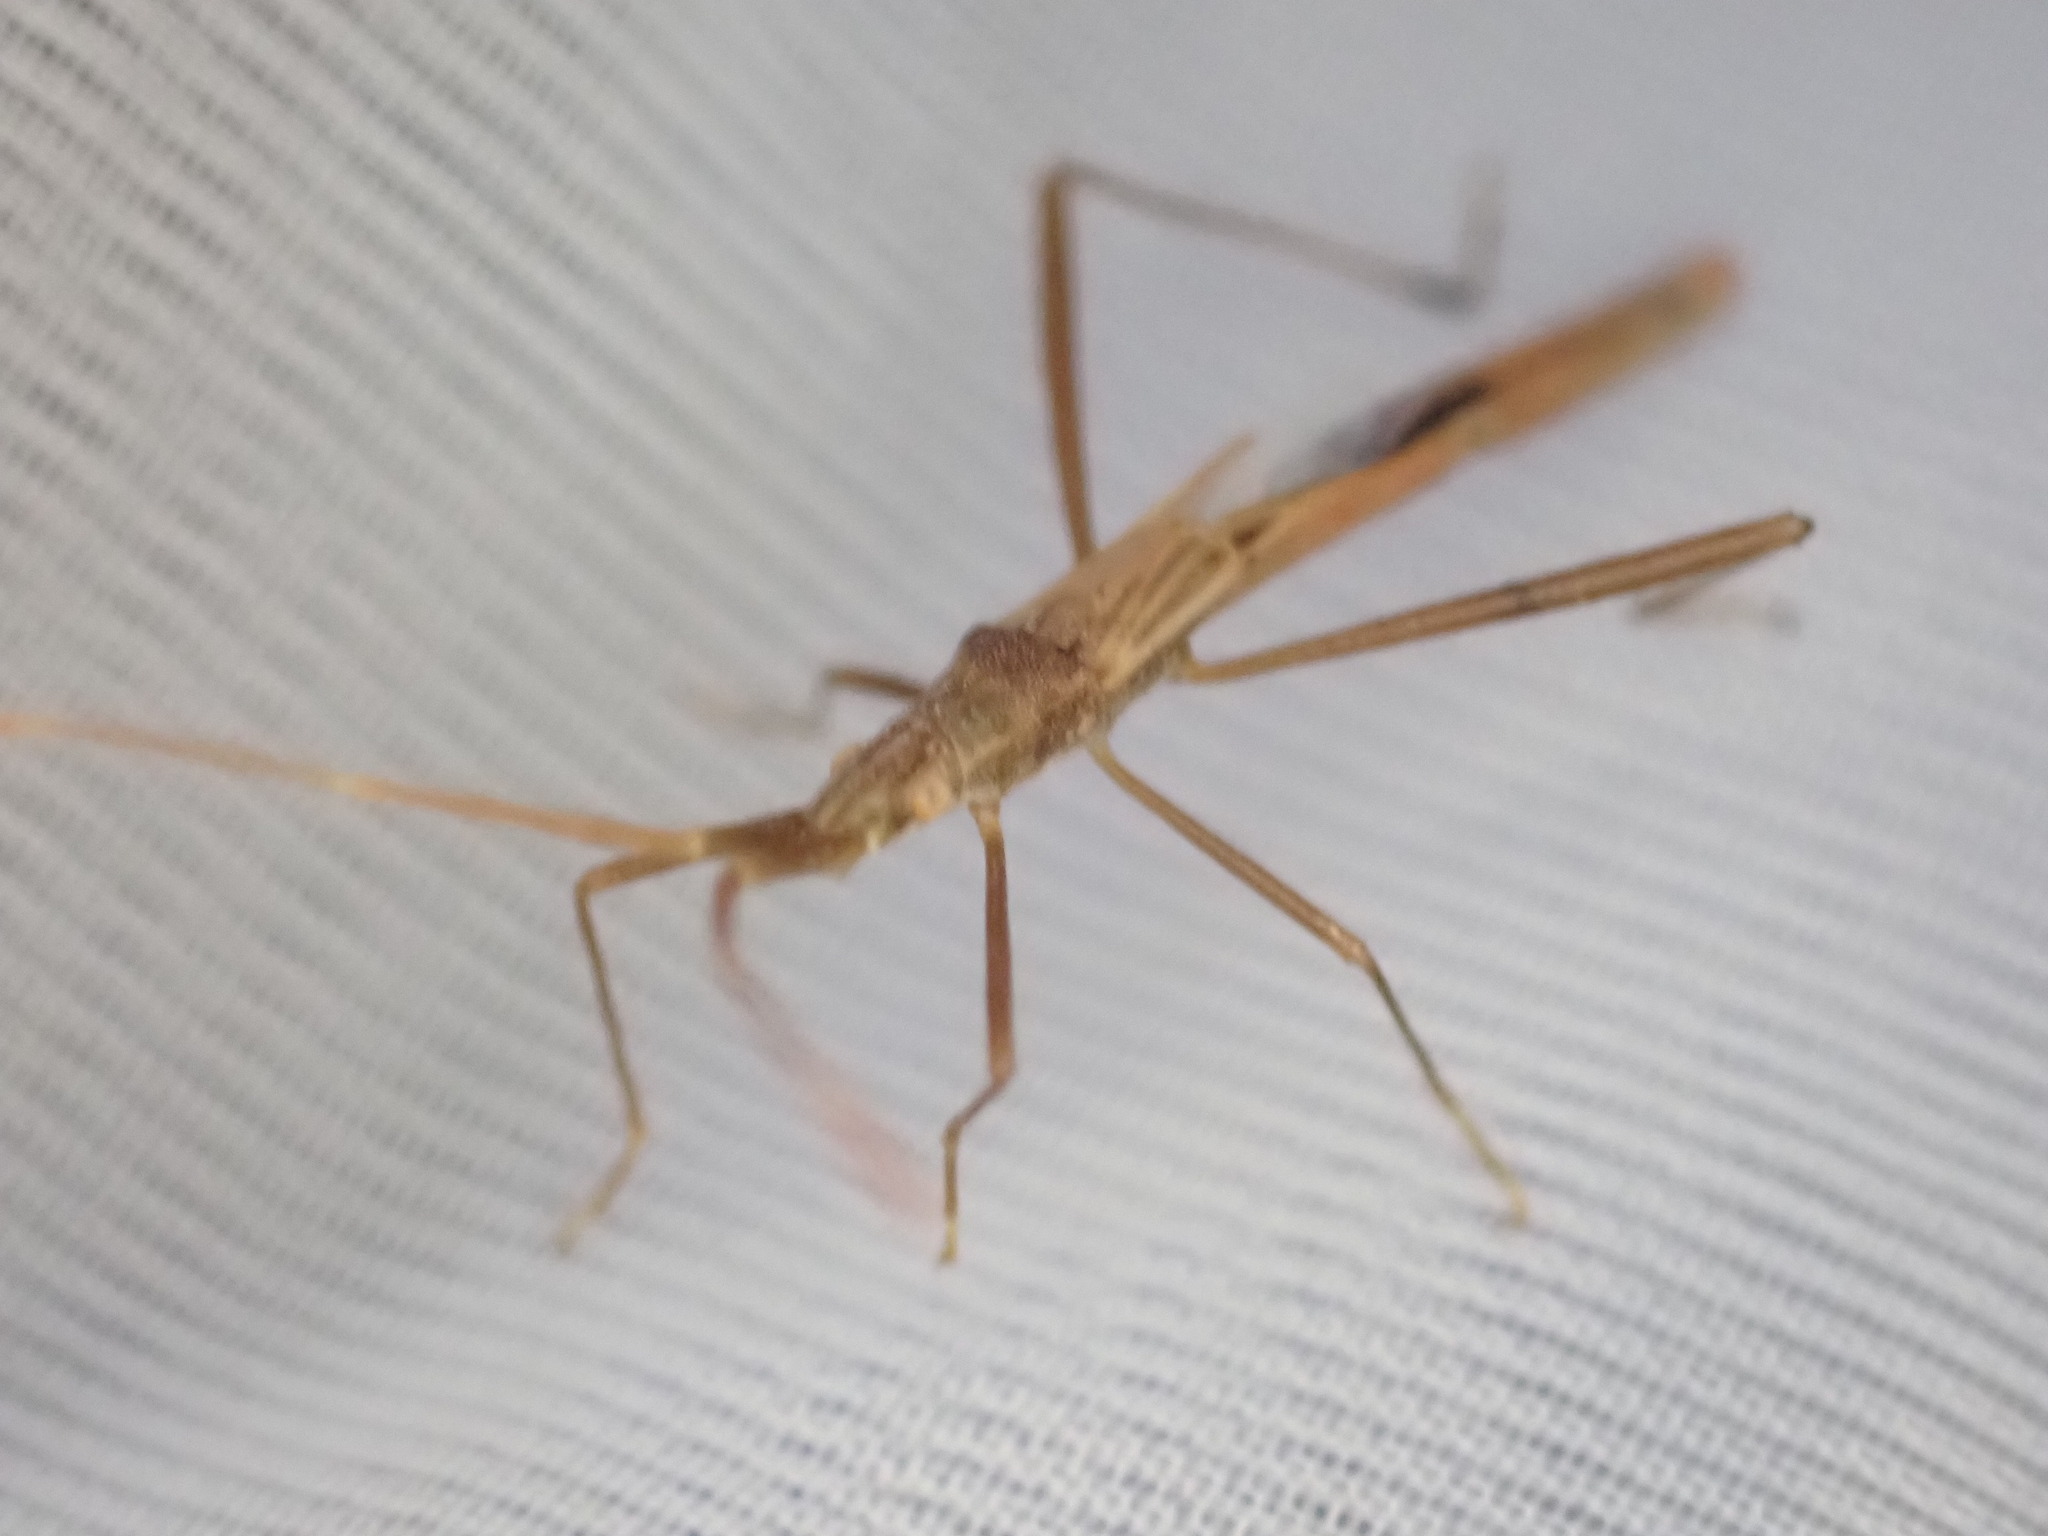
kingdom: Animalia
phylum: Arthropoda
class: Insecta
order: Hemiptera
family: Rhopalidae
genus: Chorosoma
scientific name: Chorosoma schillingii
